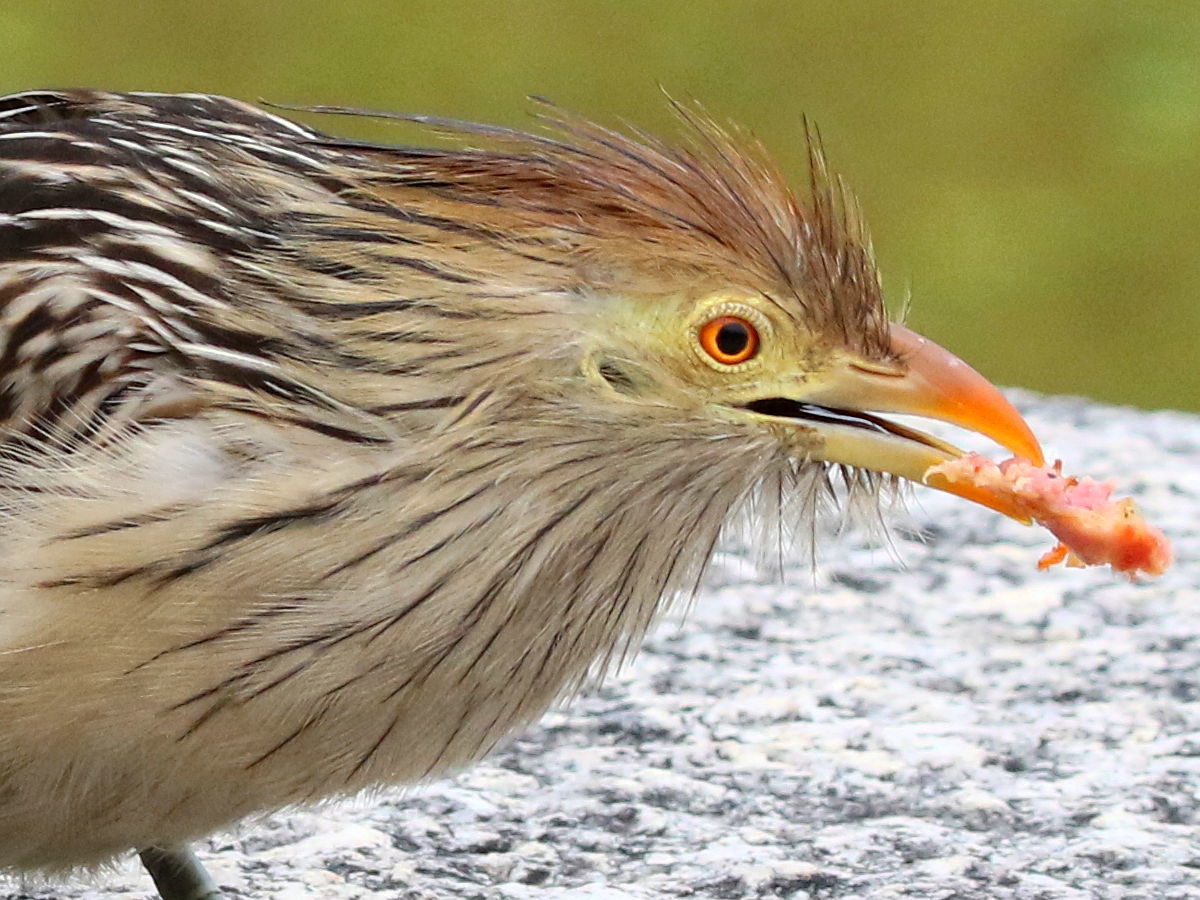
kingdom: Animalia
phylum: Chordata
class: Aves
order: Cuculiformes
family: Cuculidae
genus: Guira
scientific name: Guira guira
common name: Guira cuckoo
